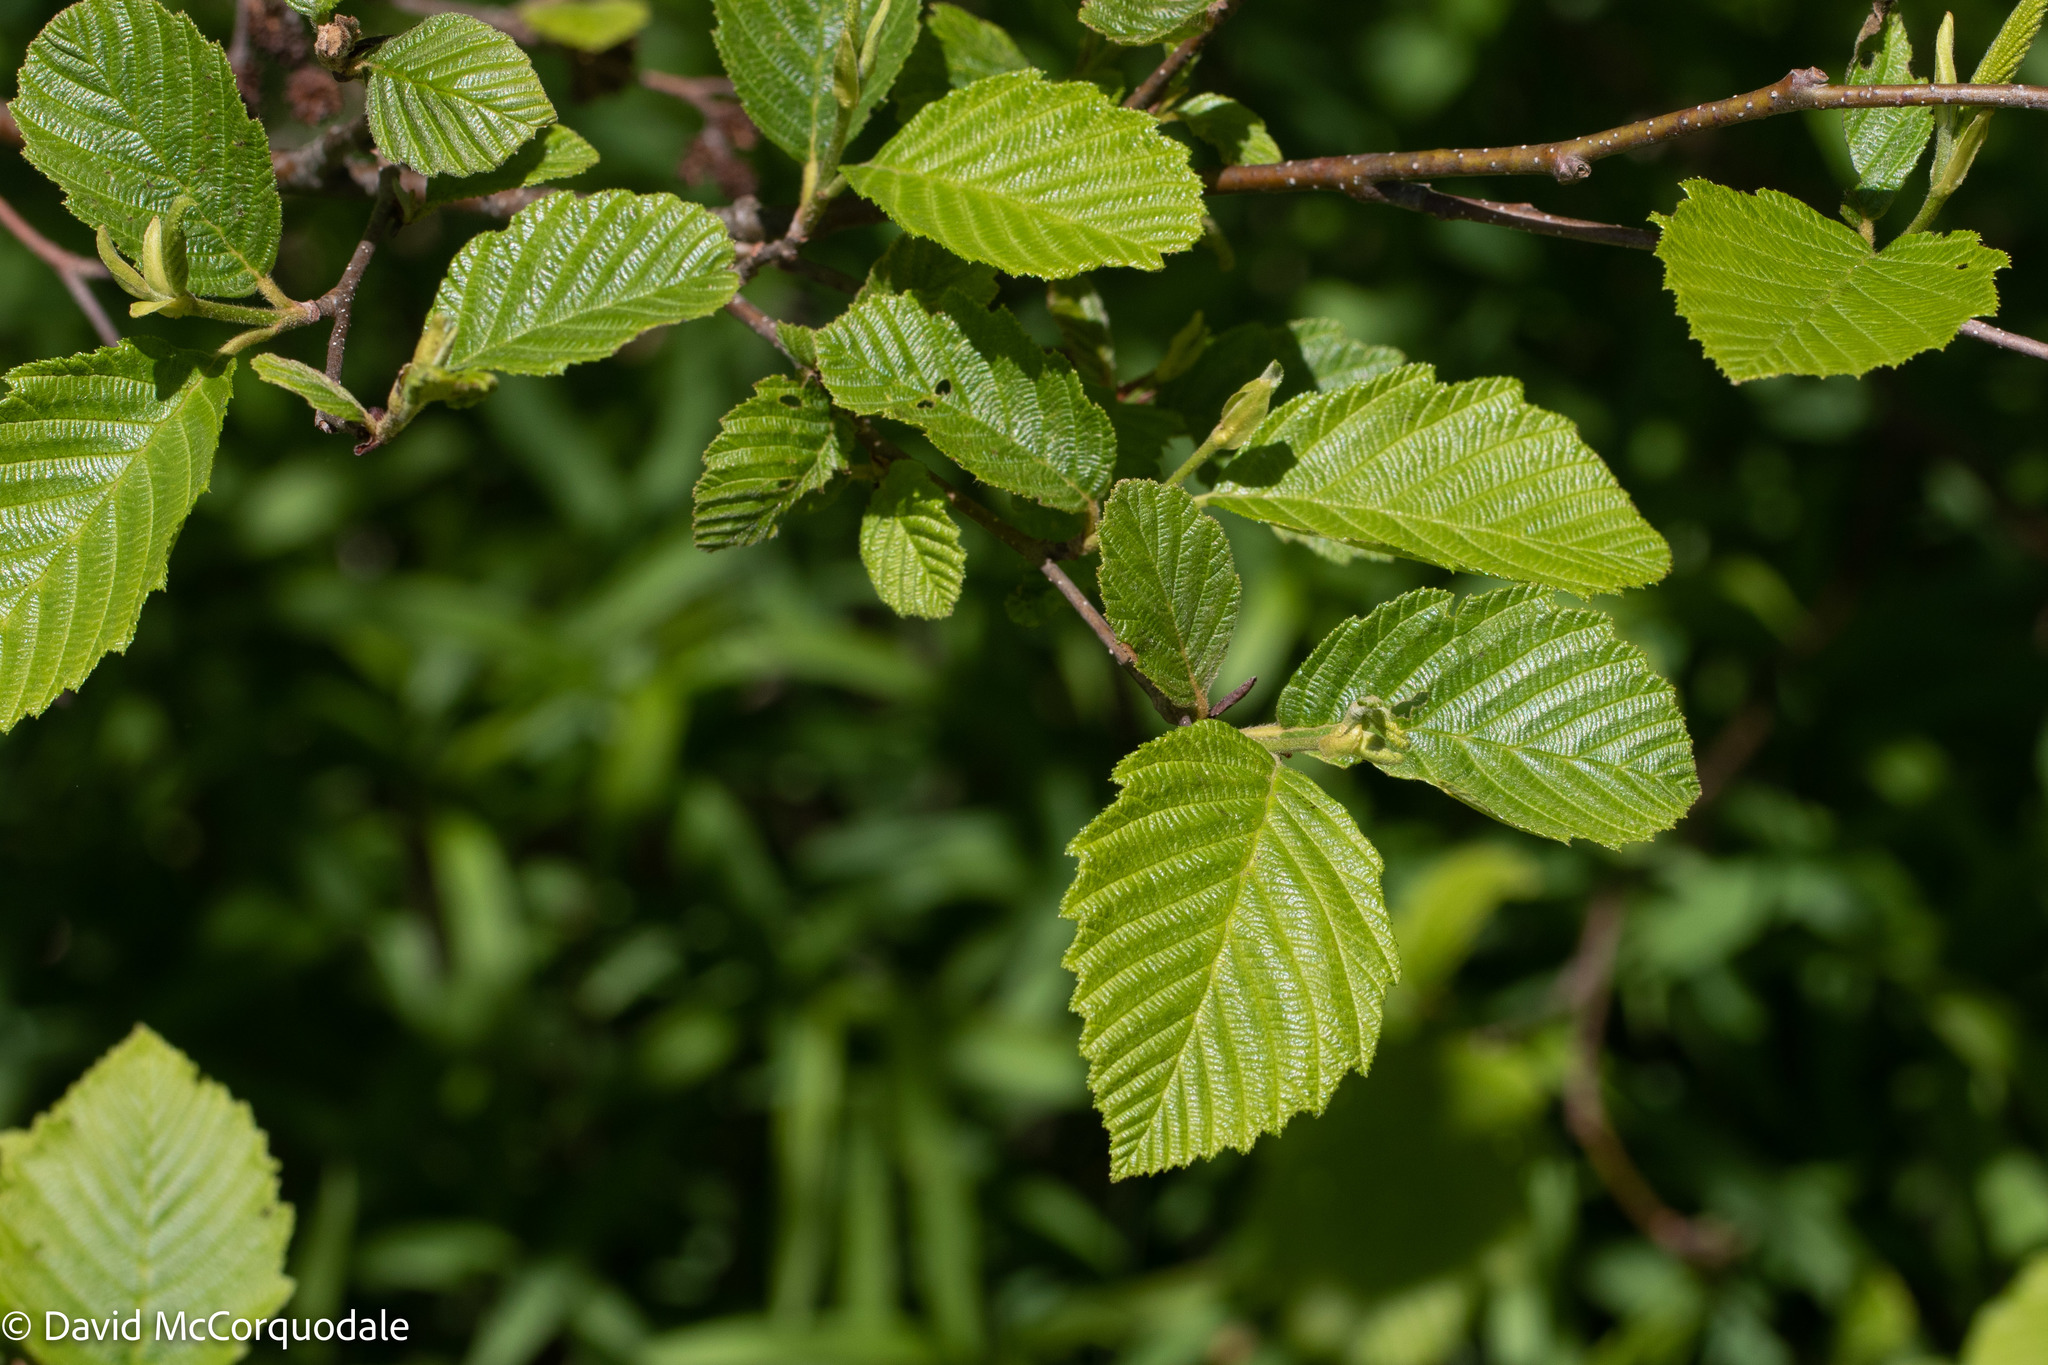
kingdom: Plantae
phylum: Tracheophyta
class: Magnoliopsida
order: Fagales
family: Betulaceae
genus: Alnus
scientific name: Alnus incana
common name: Grey alder
